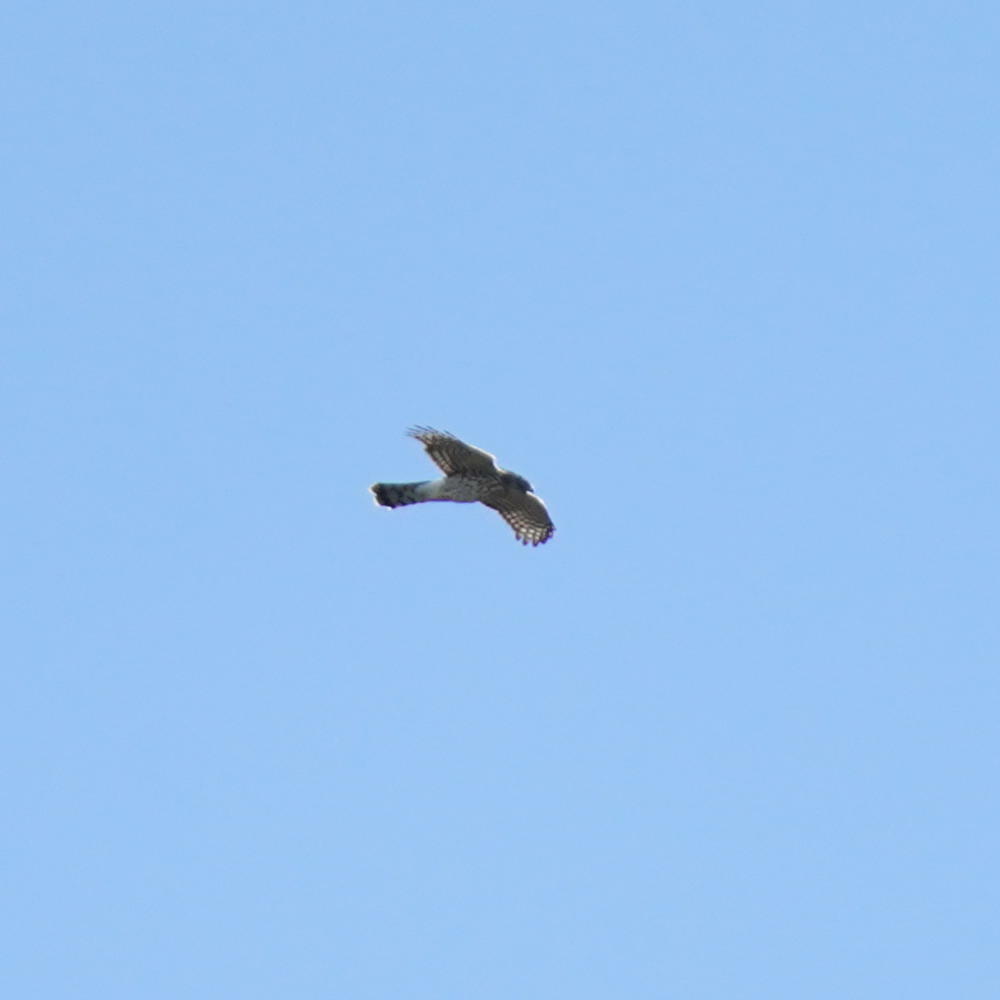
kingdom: Animalia
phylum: Chordata
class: Aves
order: Accipitriformes
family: Accipitridae
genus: Accipiter
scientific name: Accipiter cooperii
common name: Cooper's hawk
